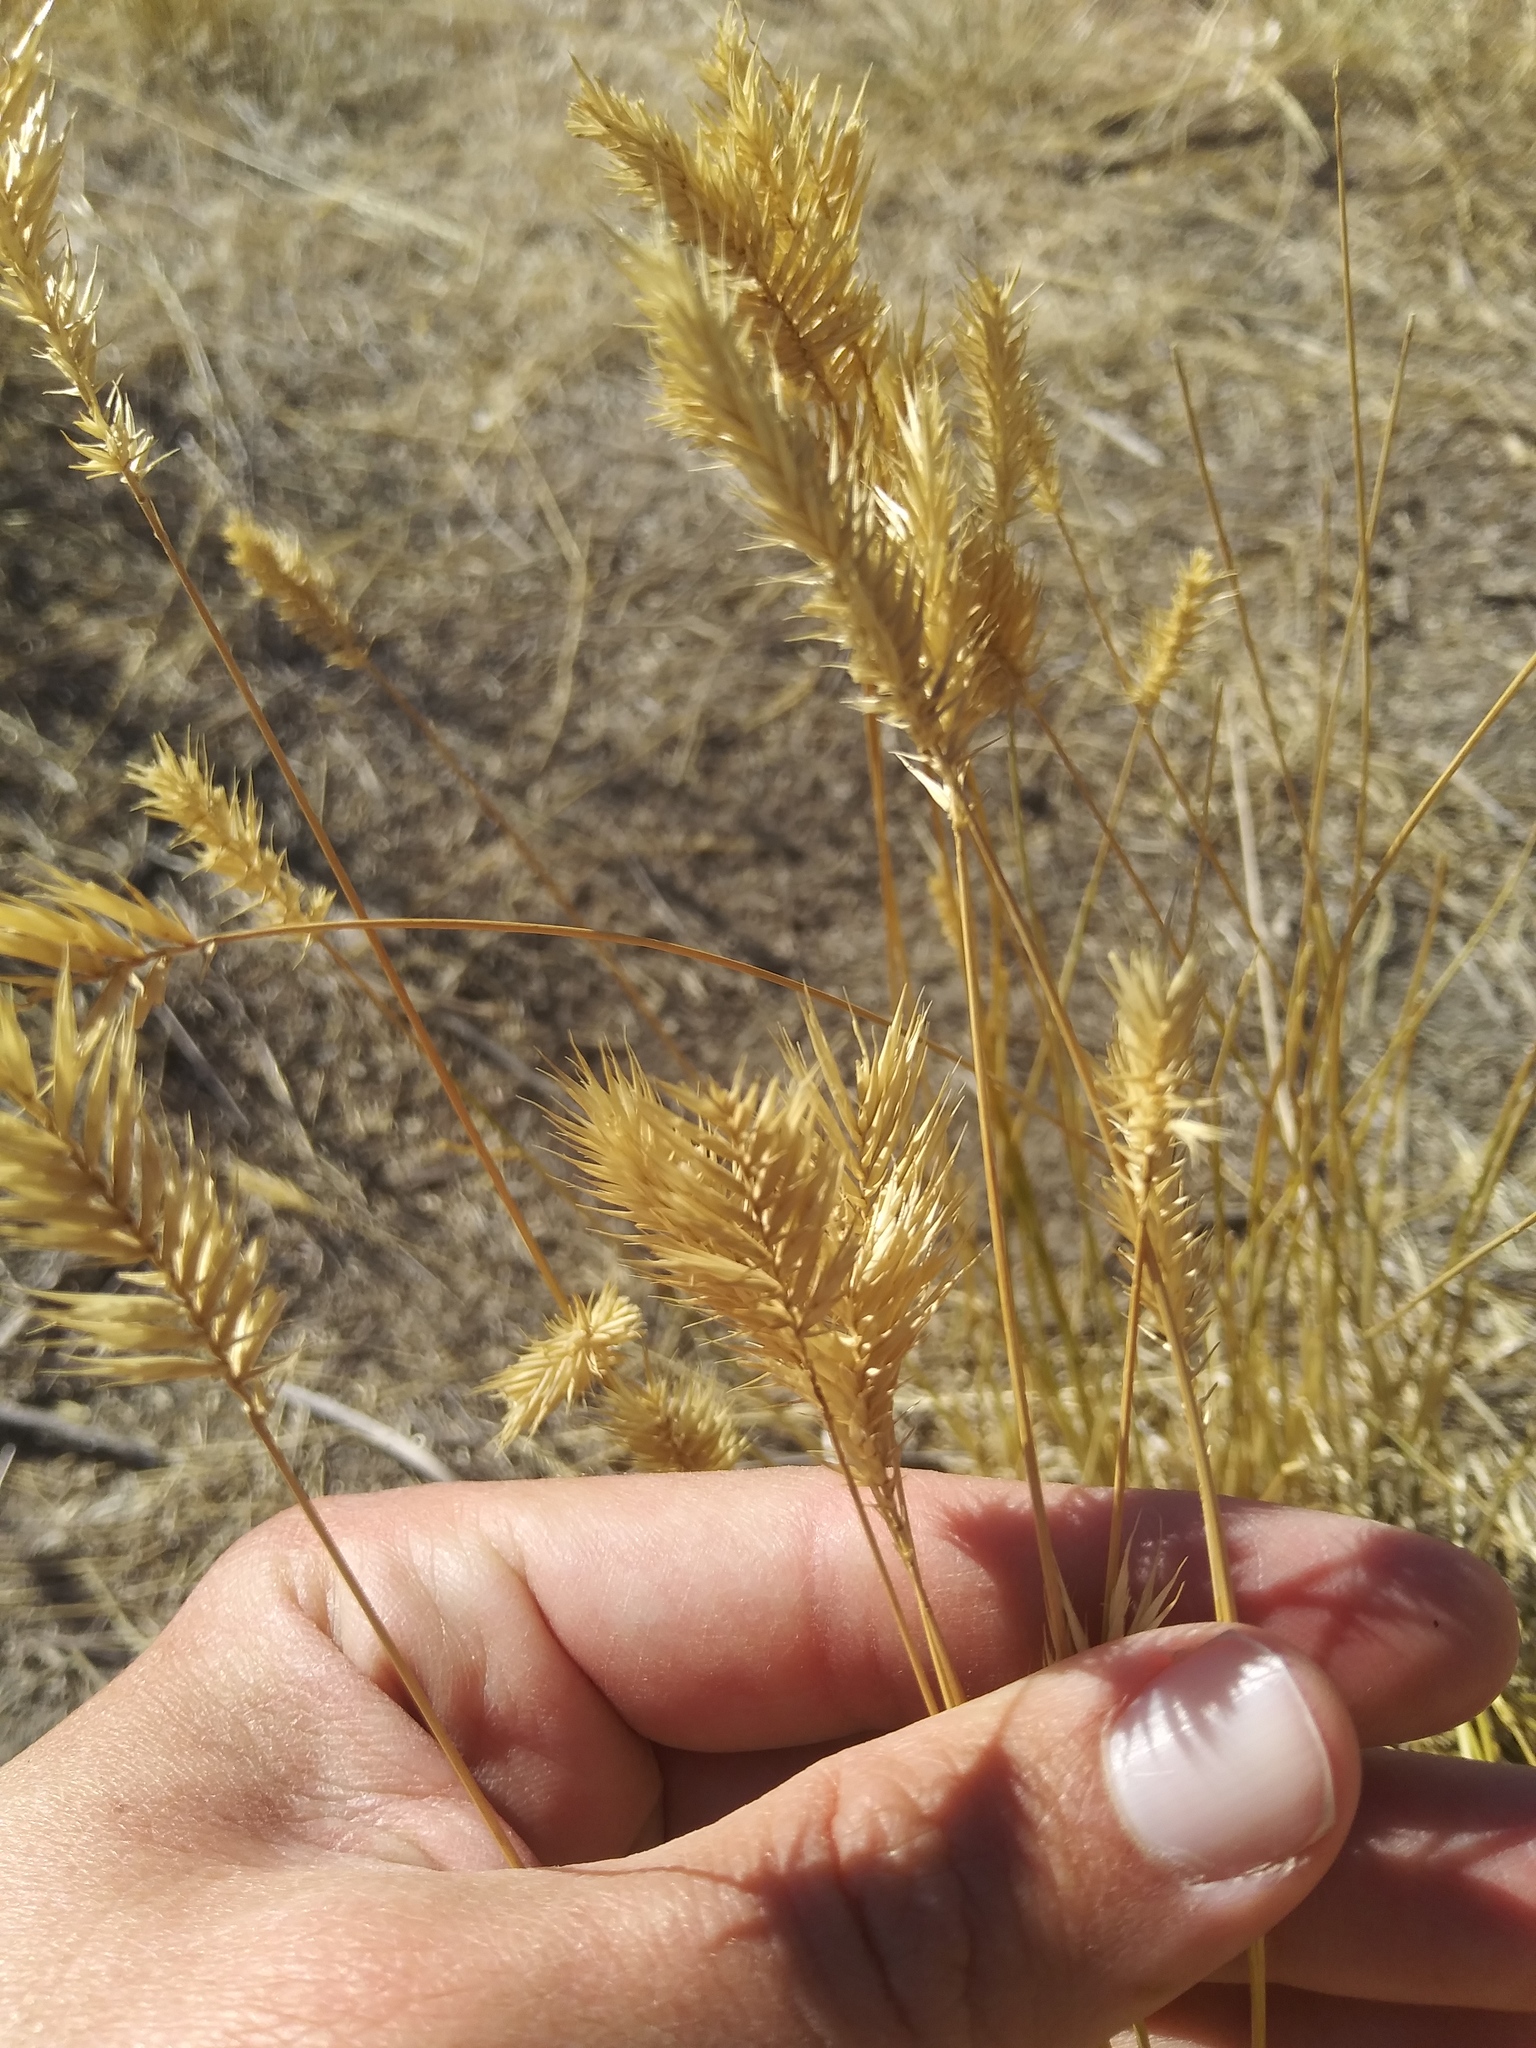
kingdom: Plantae
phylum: Tracheophyta
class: Liliopsida
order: Poales
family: Poaceae
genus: Agropyron
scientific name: Agropyron cristatum
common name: Crested wheatgrass
